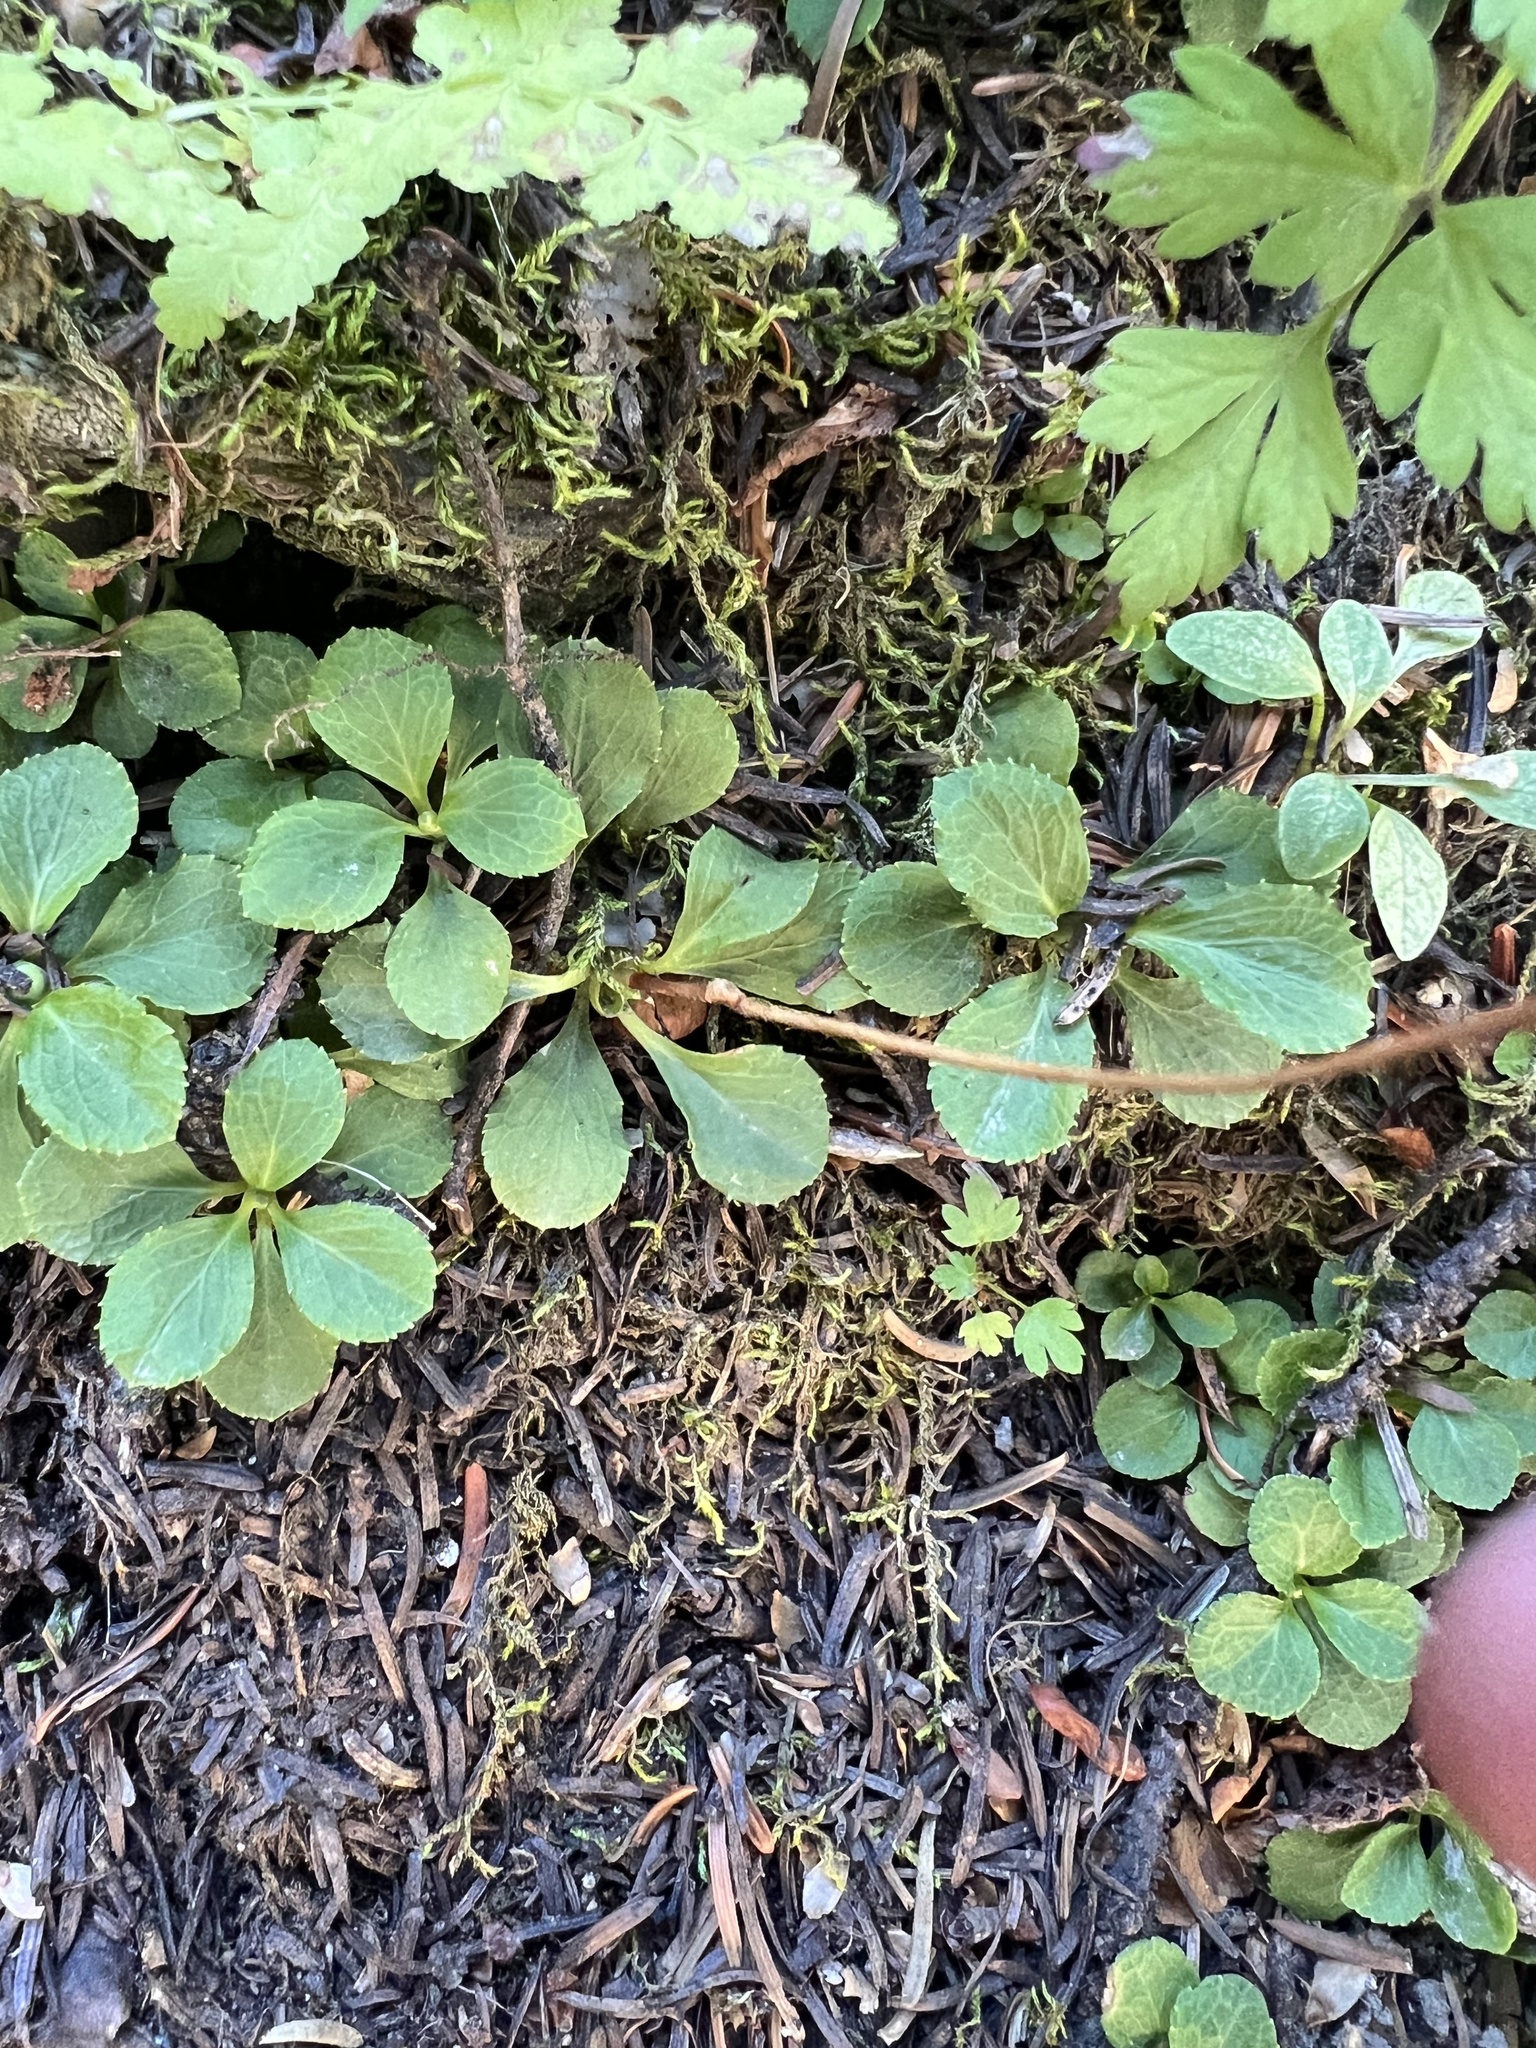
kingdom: Plantae
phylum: Tracheophyta
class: Magnoliopsida
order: Ericales
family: Ericaceae
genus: Moneses
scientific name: Moneses uniflora
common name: One-flowered wintergreen
